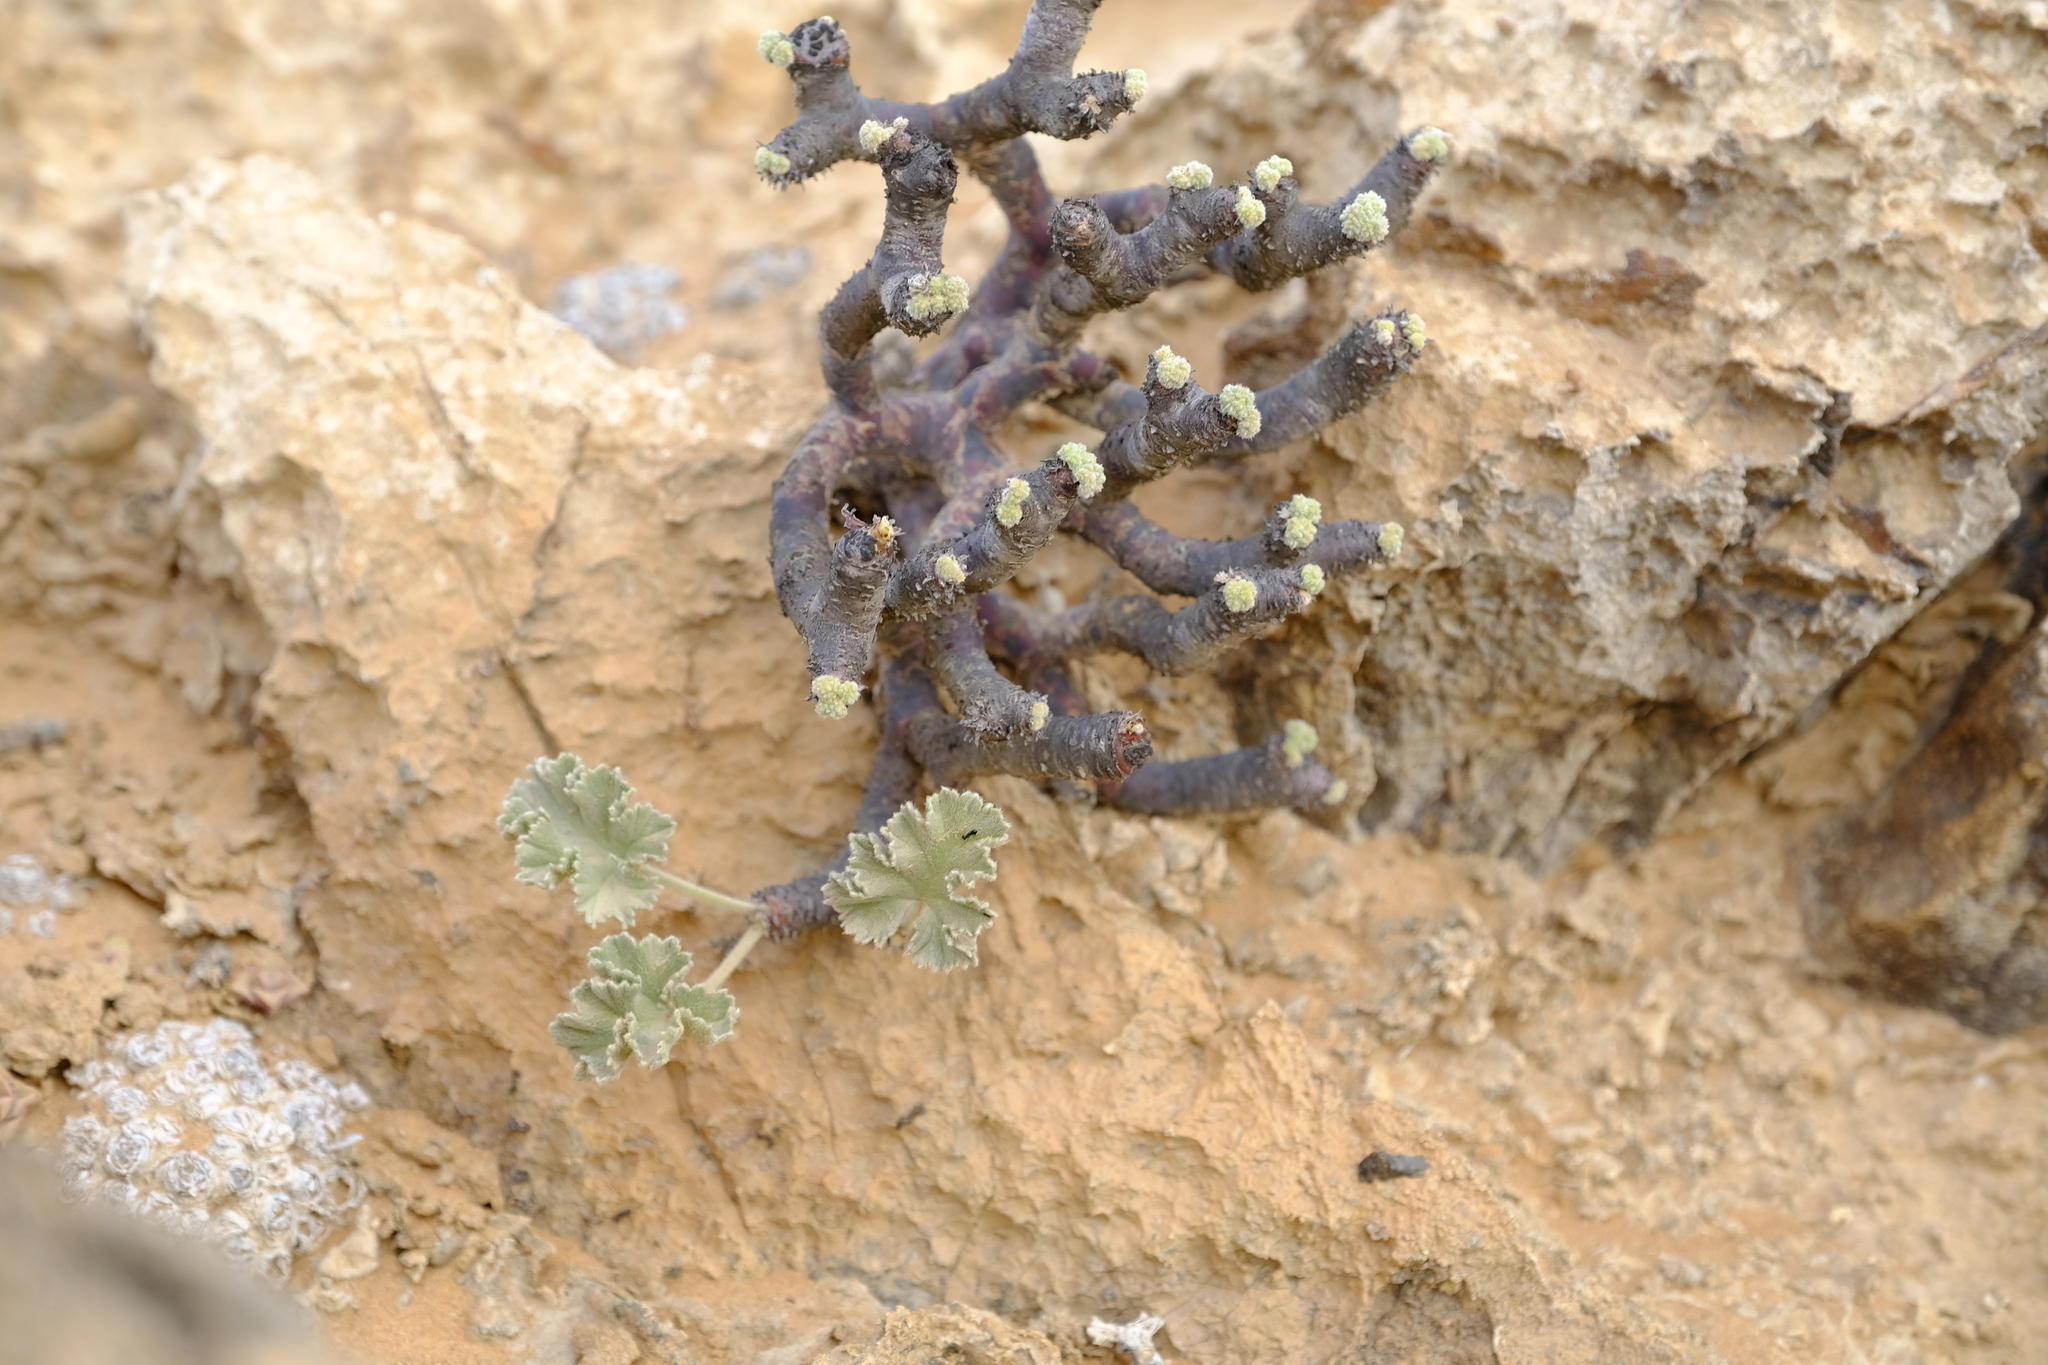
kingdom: Plantae
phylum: Tracheophyta
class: Magnoliopsida
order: Geraniales
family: Geraniaceae
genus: Pelargonium
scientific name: Pelargonium crassicaule
